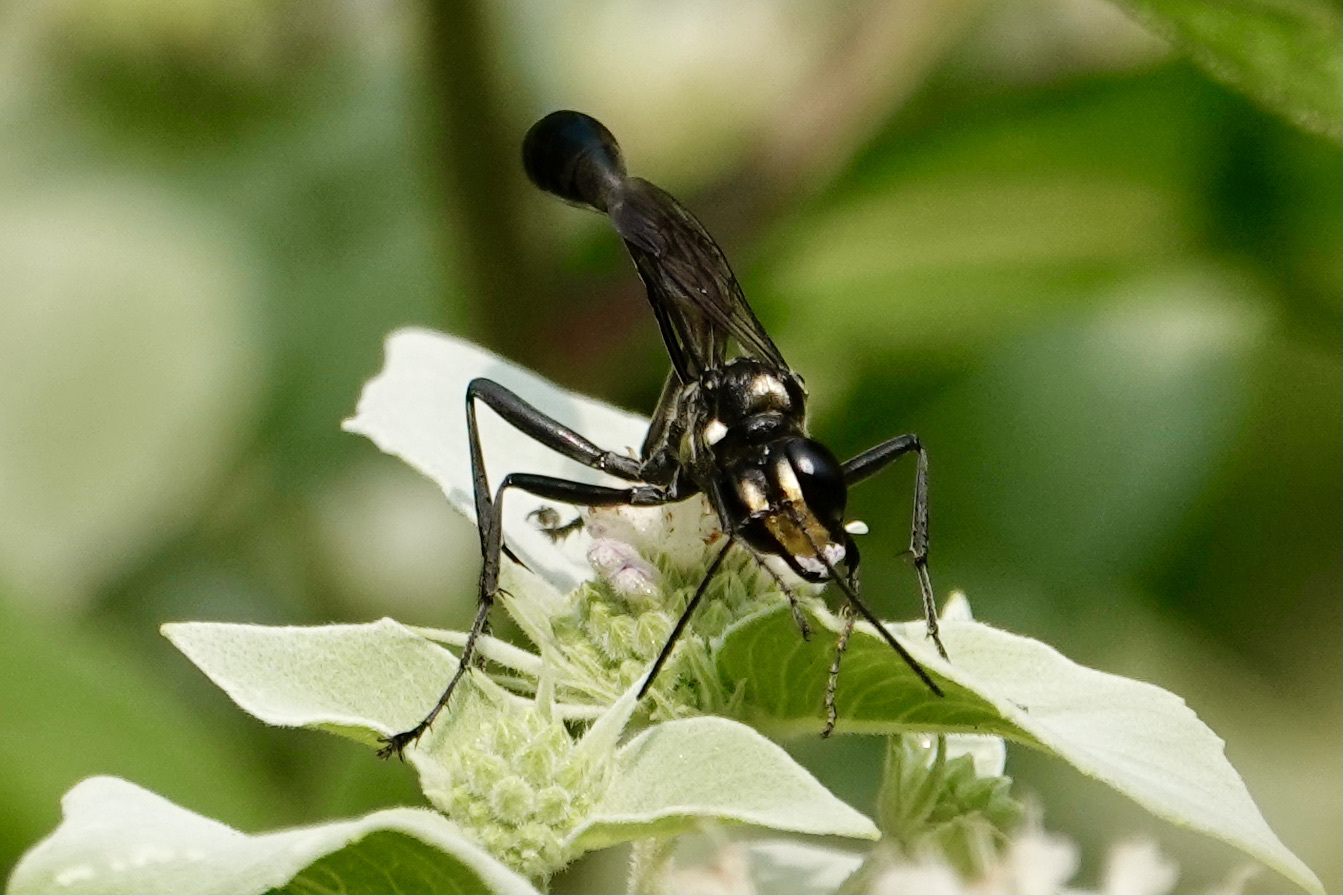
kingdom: Animalia
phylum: Arthropoda
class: Insecta
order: Hymenoptera
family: Sphecidae
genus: Eremnophila
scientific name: Eremnophila aureonotata
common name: Gold-marked thread-waisted wasp
